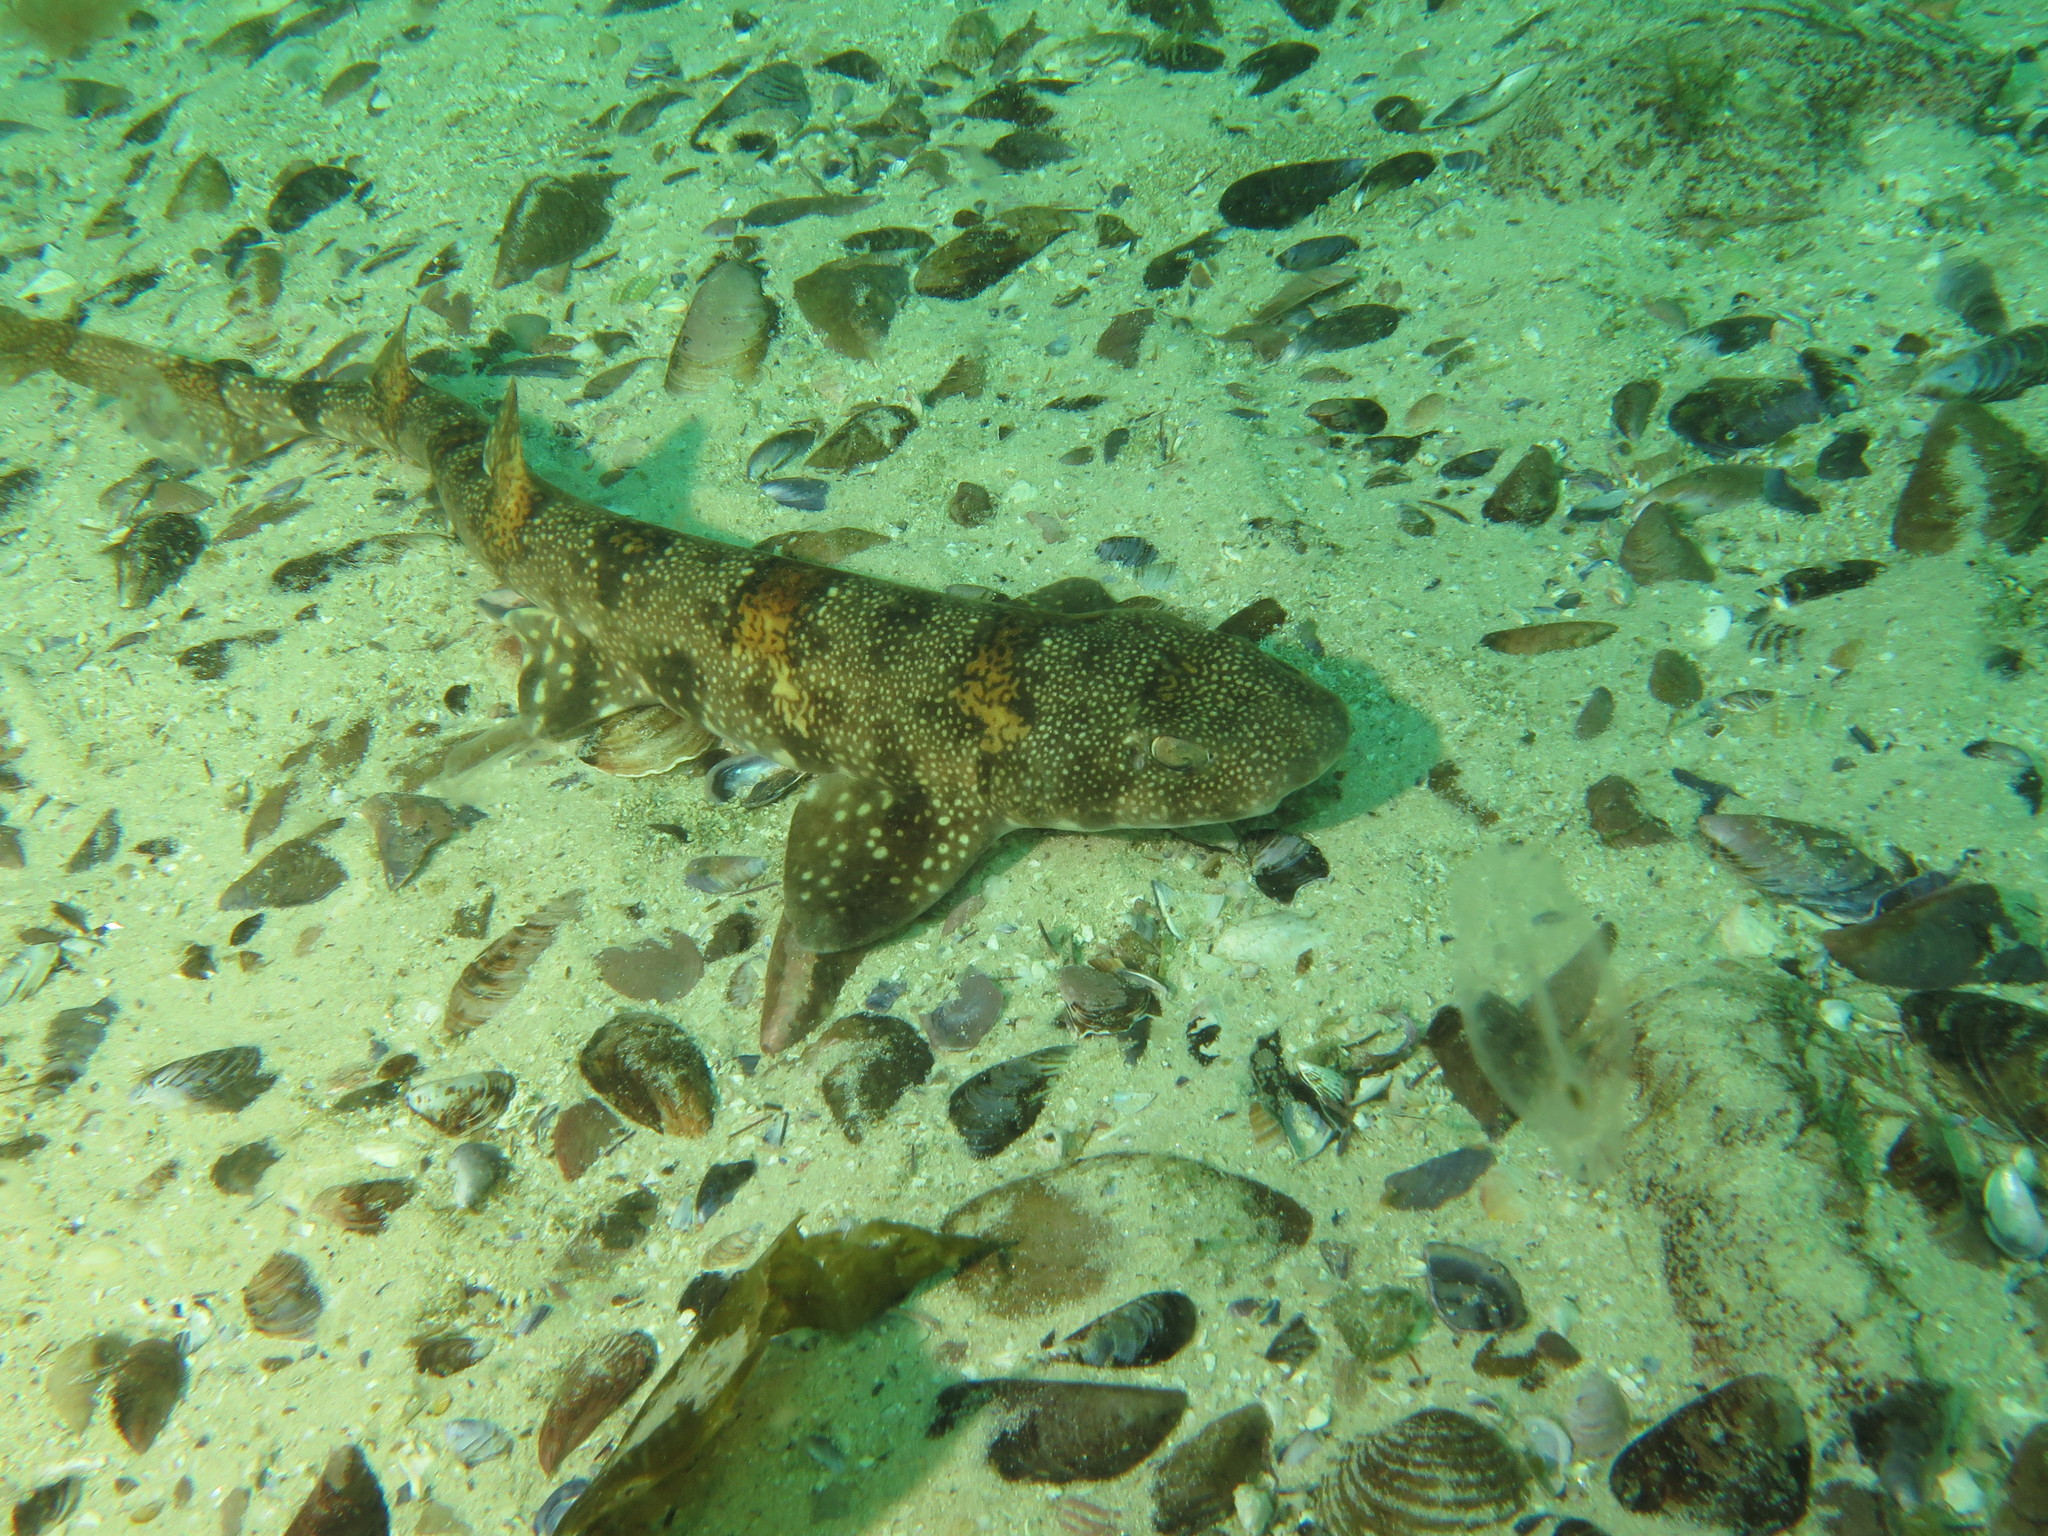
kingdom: Animalia
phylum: Chordata
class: Elasmobranchii
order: Carcharhiniformes
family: Scyliorhinidae
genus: Haploblepharus
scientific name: Haploblepharus edwardsii
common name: Puffadder shyshark
